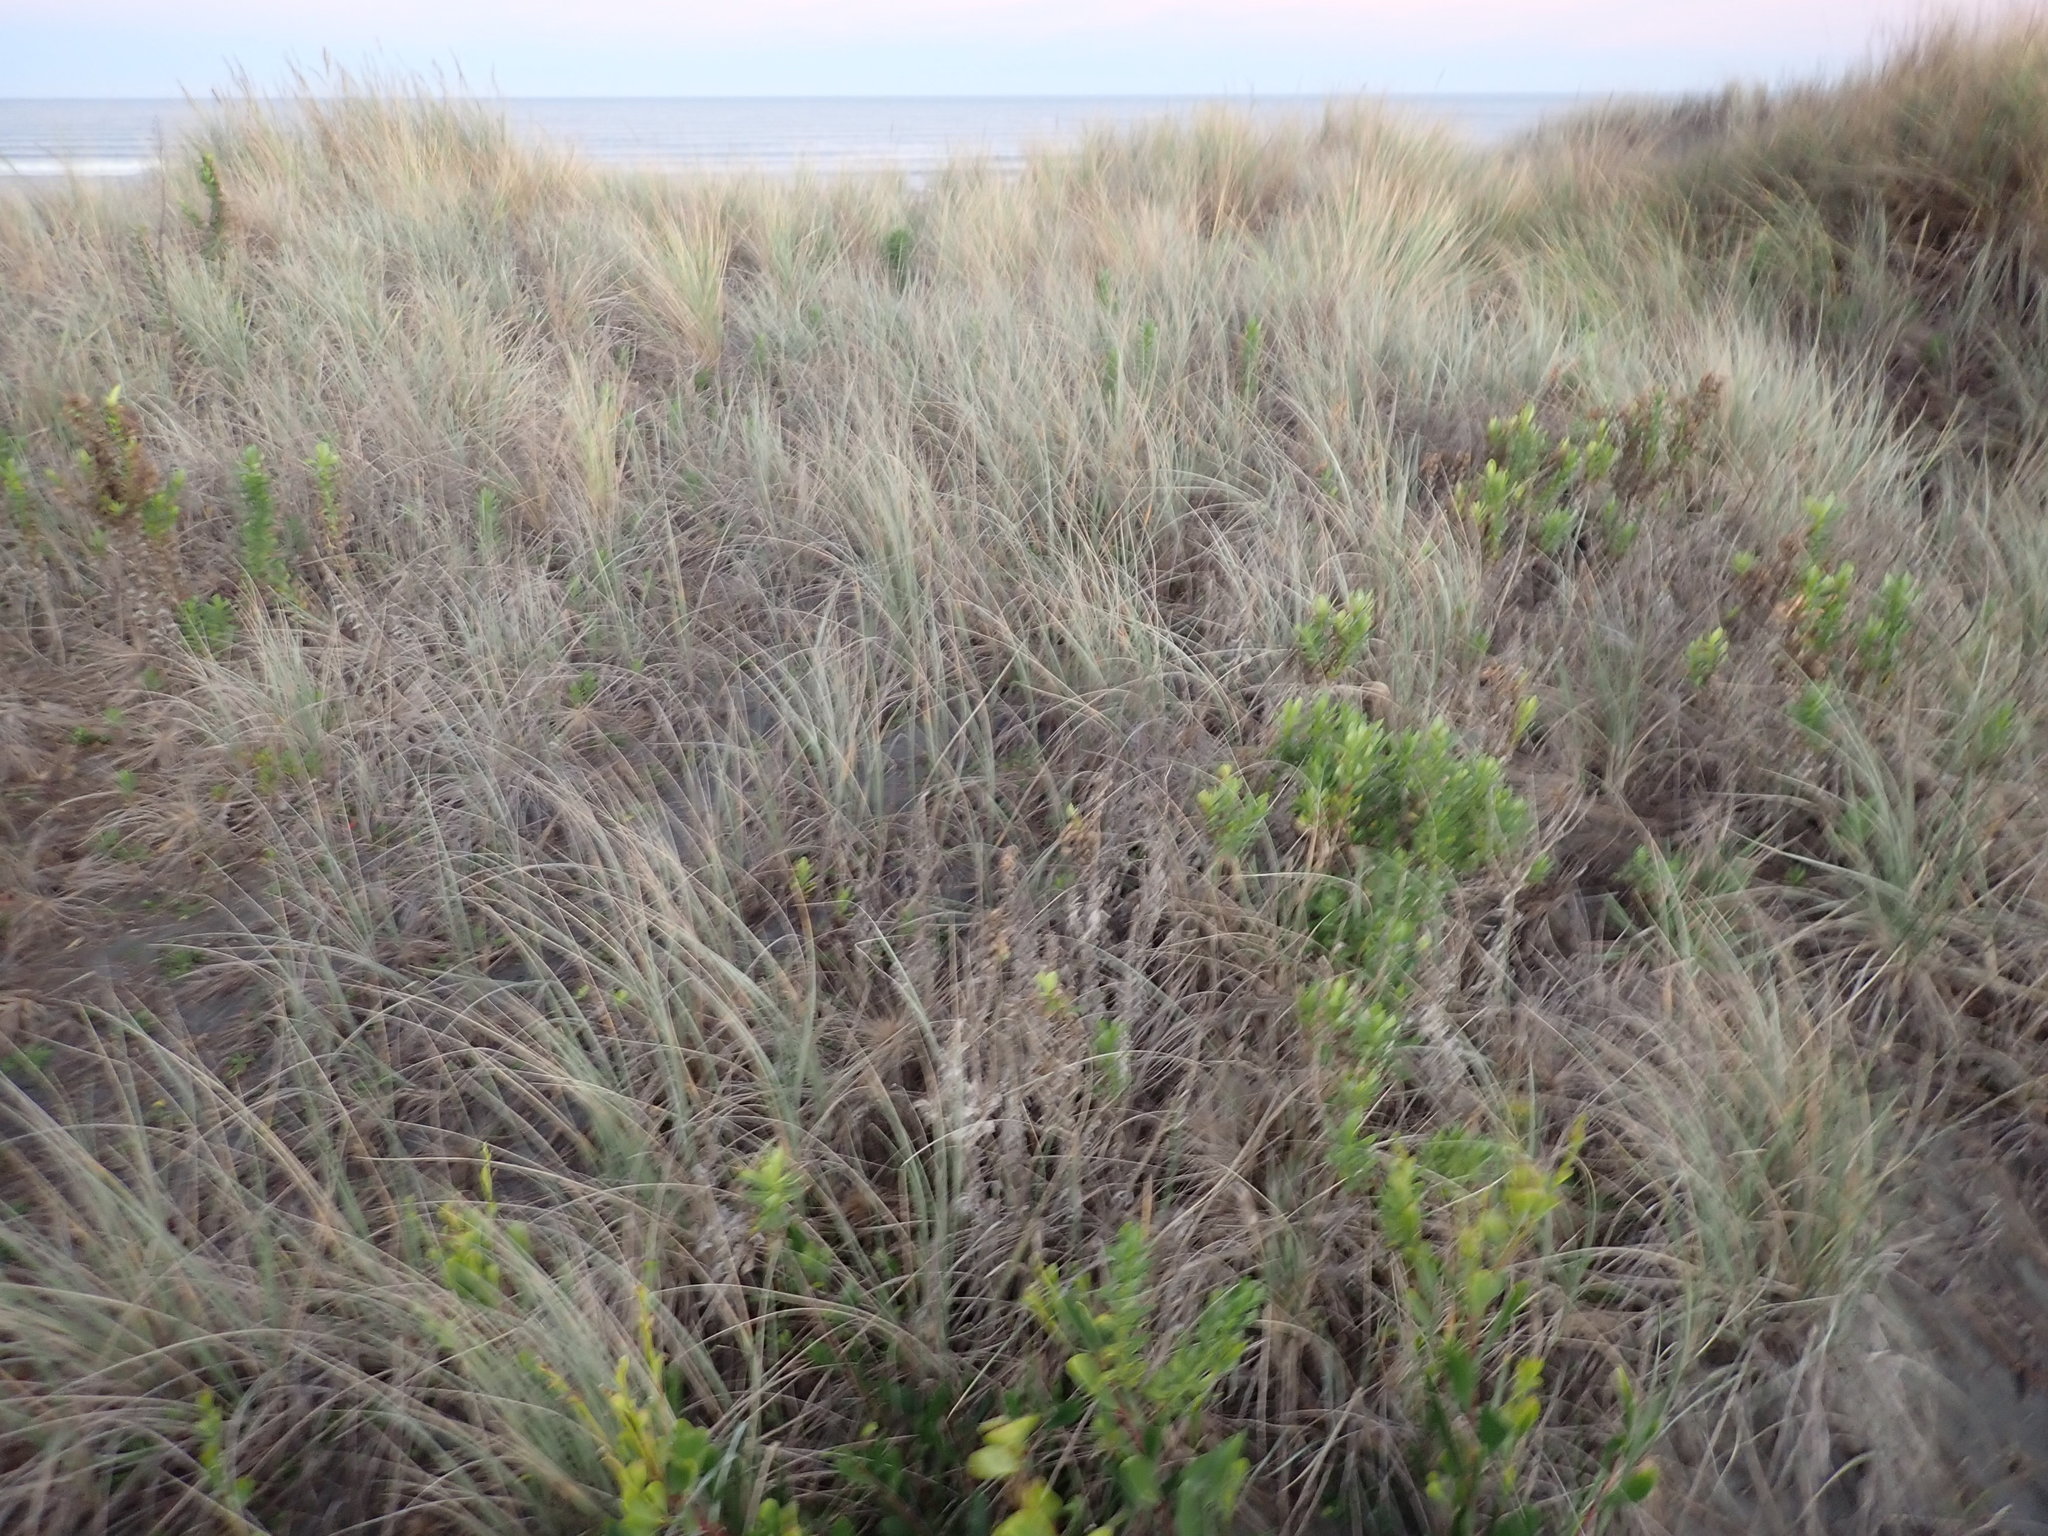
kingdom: Plantae
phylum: Tracheophyta
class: Magnoliopsida
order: Asterales
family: Asteraceae
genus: Senecio
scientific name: Senecio glastifolius
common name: Woad-leaved ragwort
